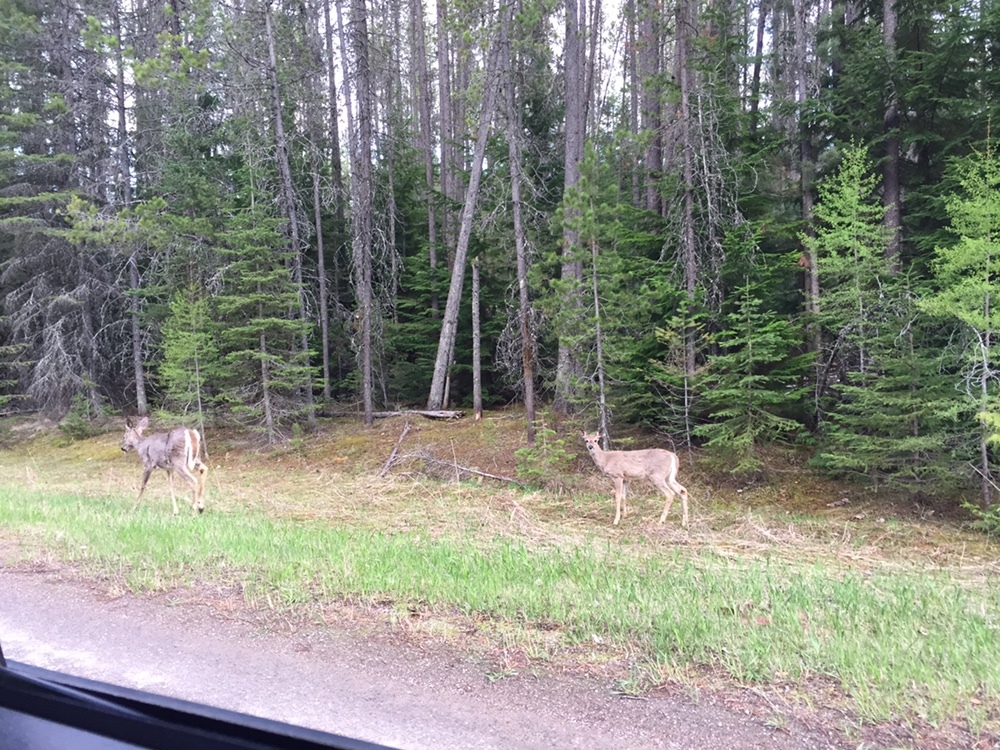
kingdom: Animalia
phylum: Chordata
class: Mammalia
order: Artiodactyla
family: Cervidae
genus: Odocoileus
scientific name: Odocoileus virginianus
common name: White-tailed deer
